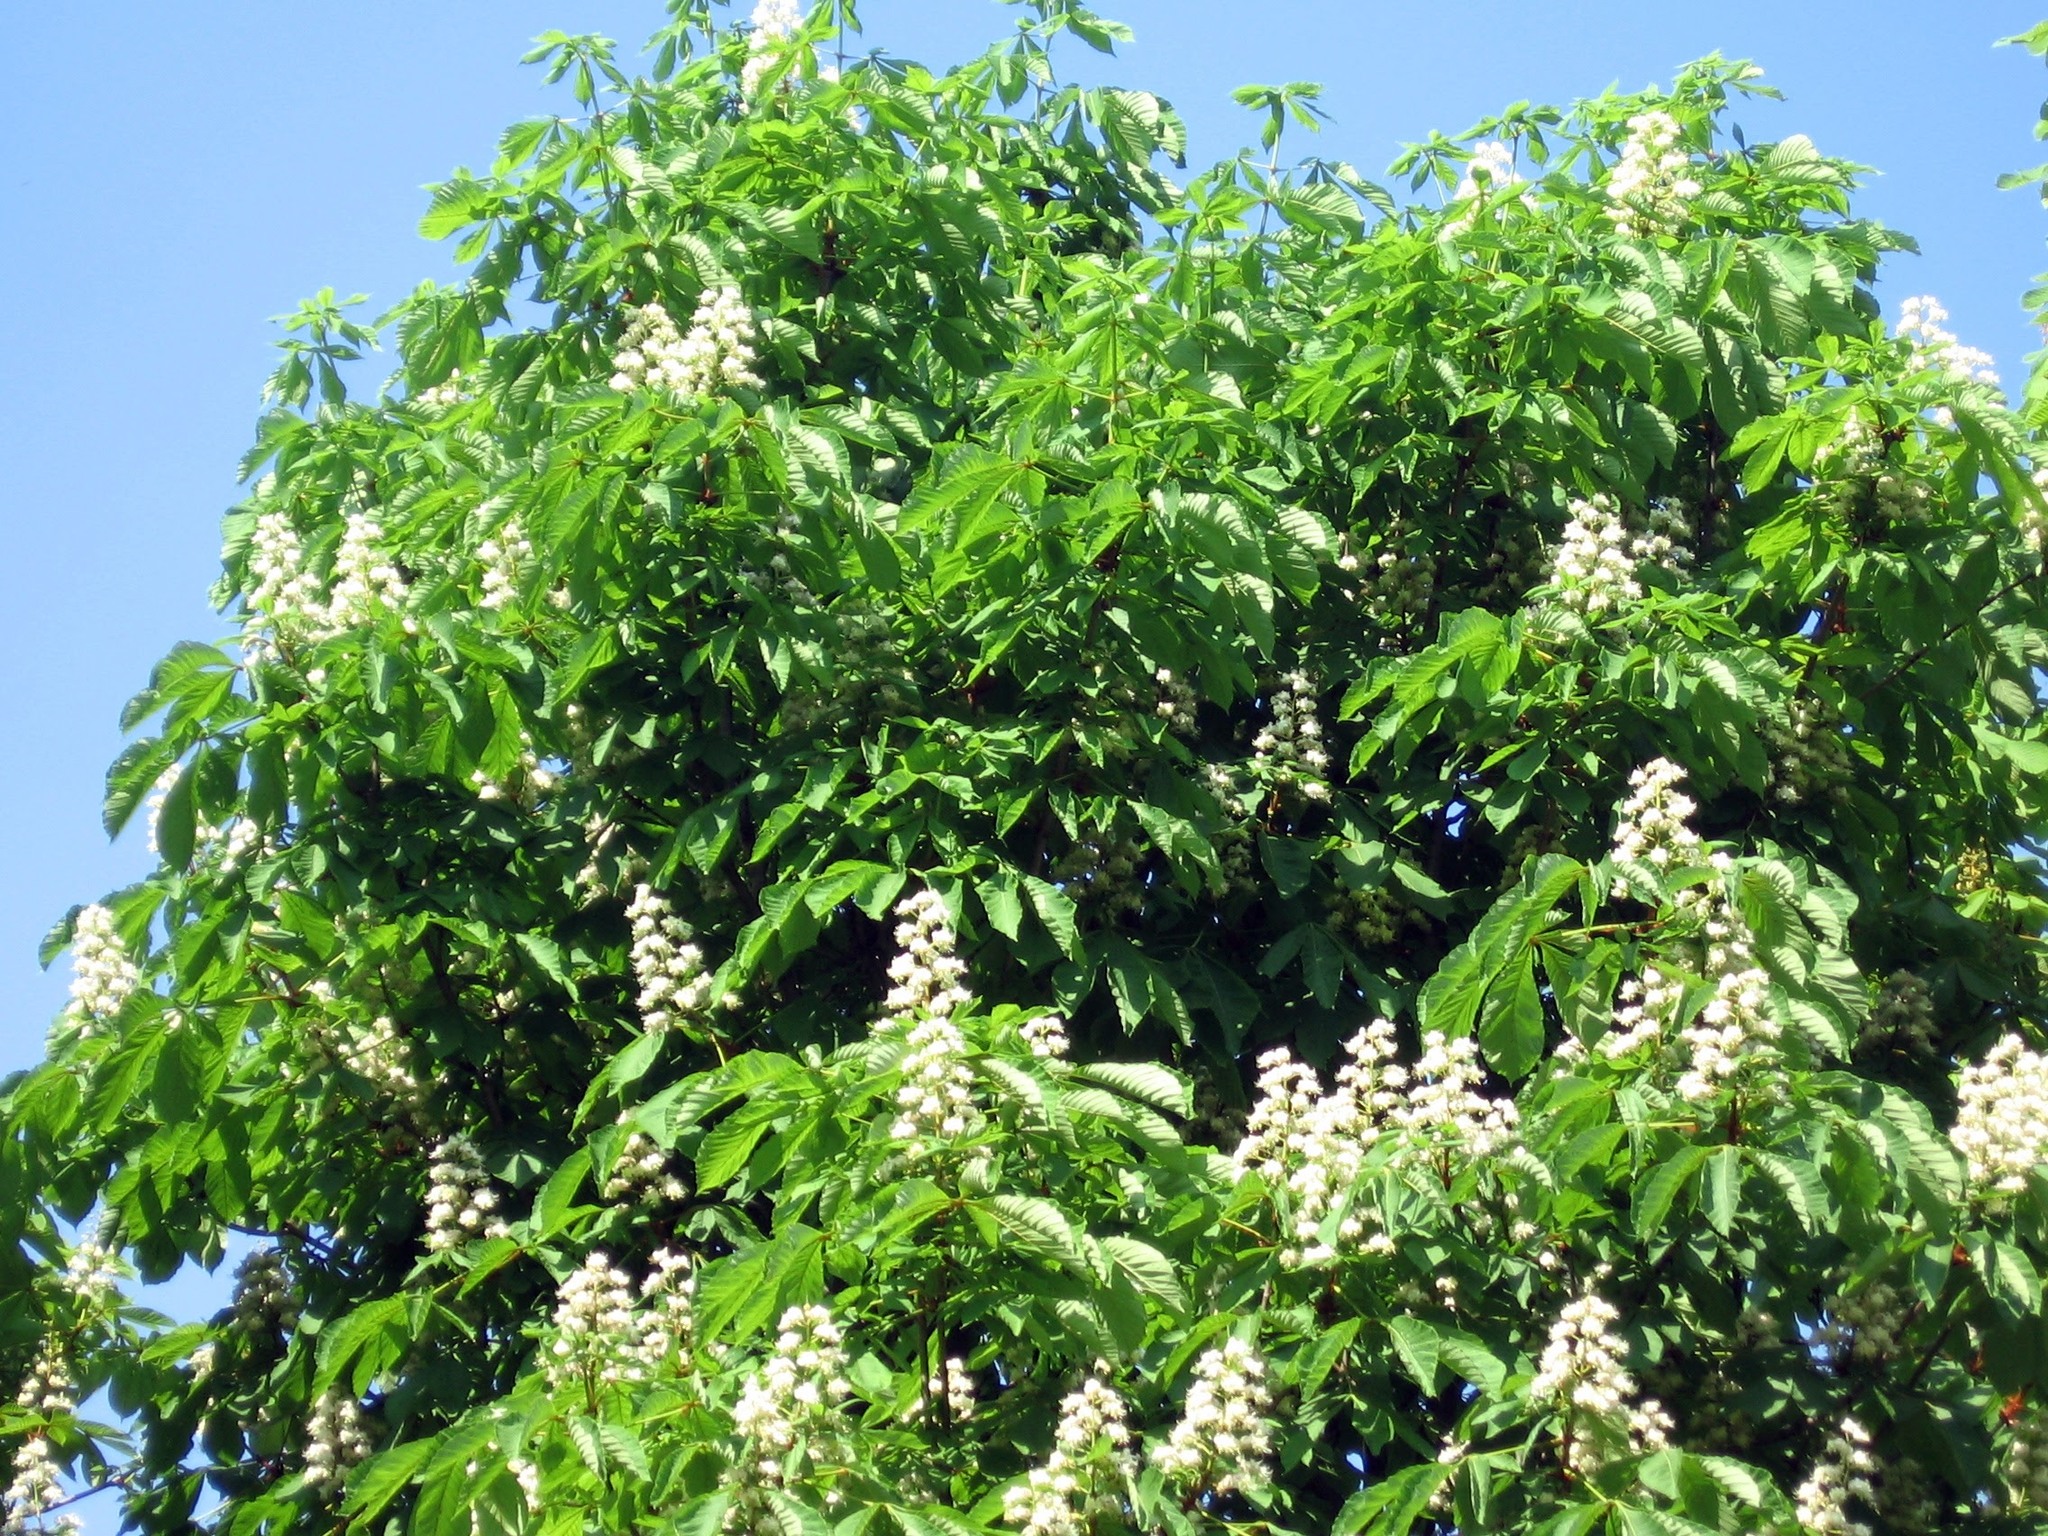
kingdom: Plantae
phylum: Tracheophyta
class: Magnoliopsida
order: Sapindales
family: Sapindaceae
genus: Aesculus
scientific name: Aesculus hippocastanum
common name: Horse-chestnut
